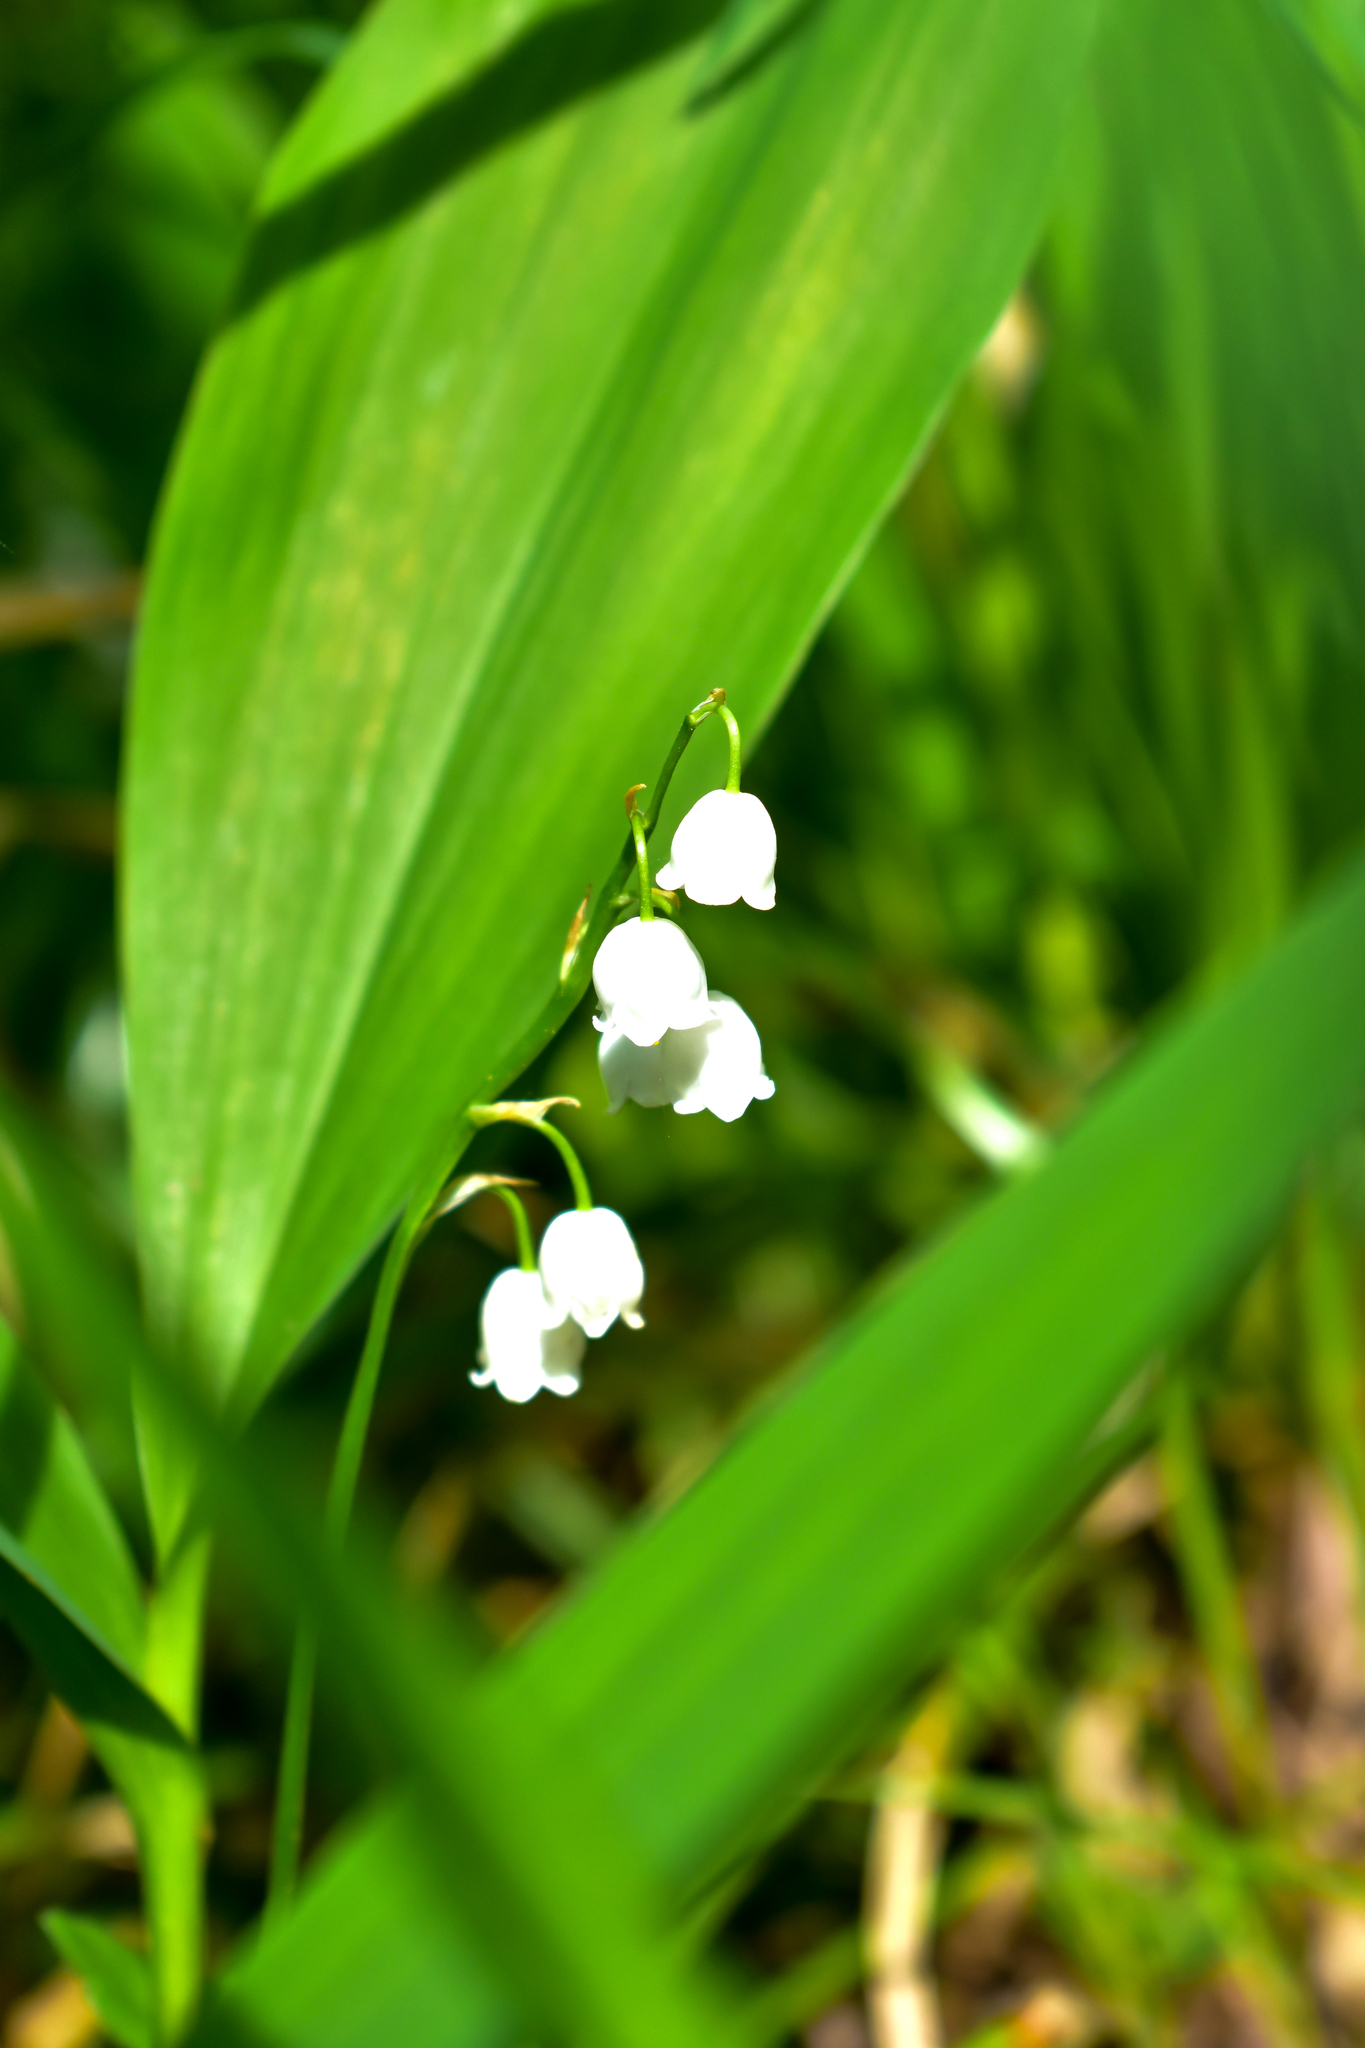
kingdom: Plantae
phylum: Tracheophyta
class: Liliopsida
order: Asparagales
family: Asparagaceae
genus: Convallaria
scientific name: Convallaria majalis
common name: Lily-of-the-valley
